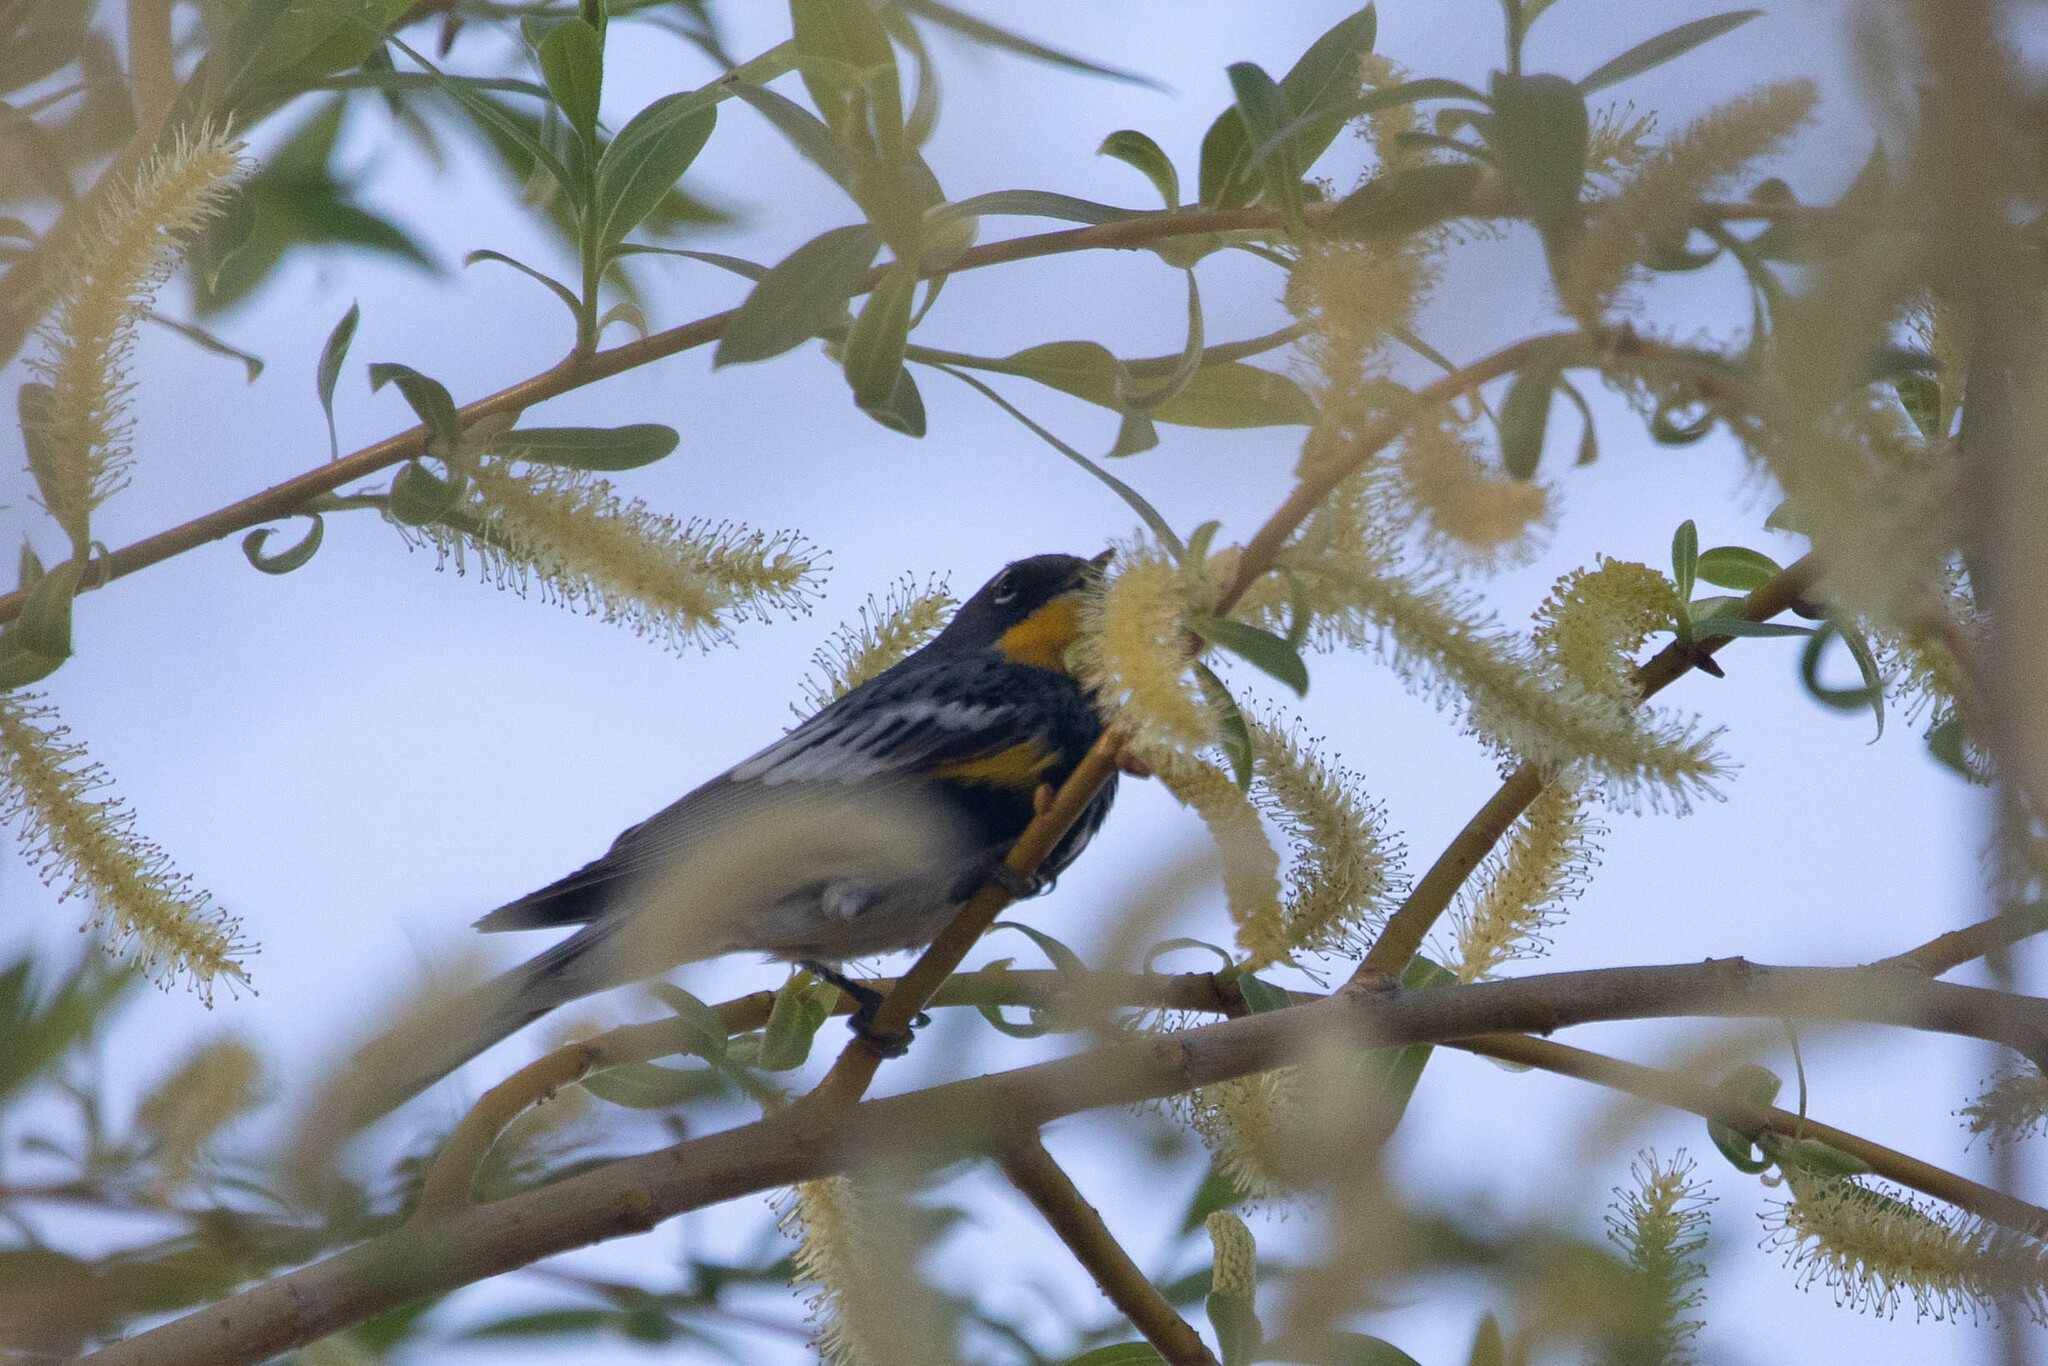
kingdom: Animalia
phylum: Chordata
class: Aves
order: Passeriformes
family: Parulidae
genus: Setophaga
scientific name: Setophaga auduboni
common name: Audubon's warbler
